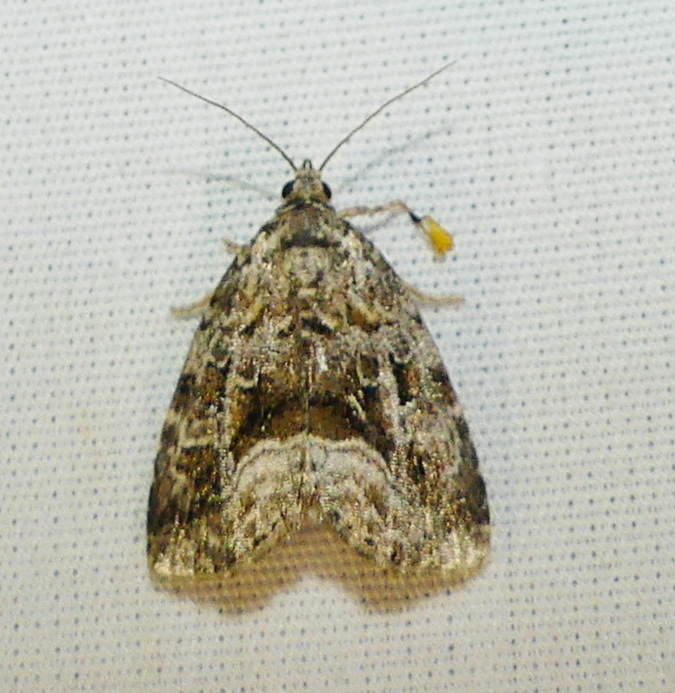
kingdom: Animalia
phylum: Arthropoda
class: Insecta
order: Lepidoptera
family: Noctuidae
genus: Protodeltote
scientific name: Protodeltote muscosula
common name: Large mossy glyph
